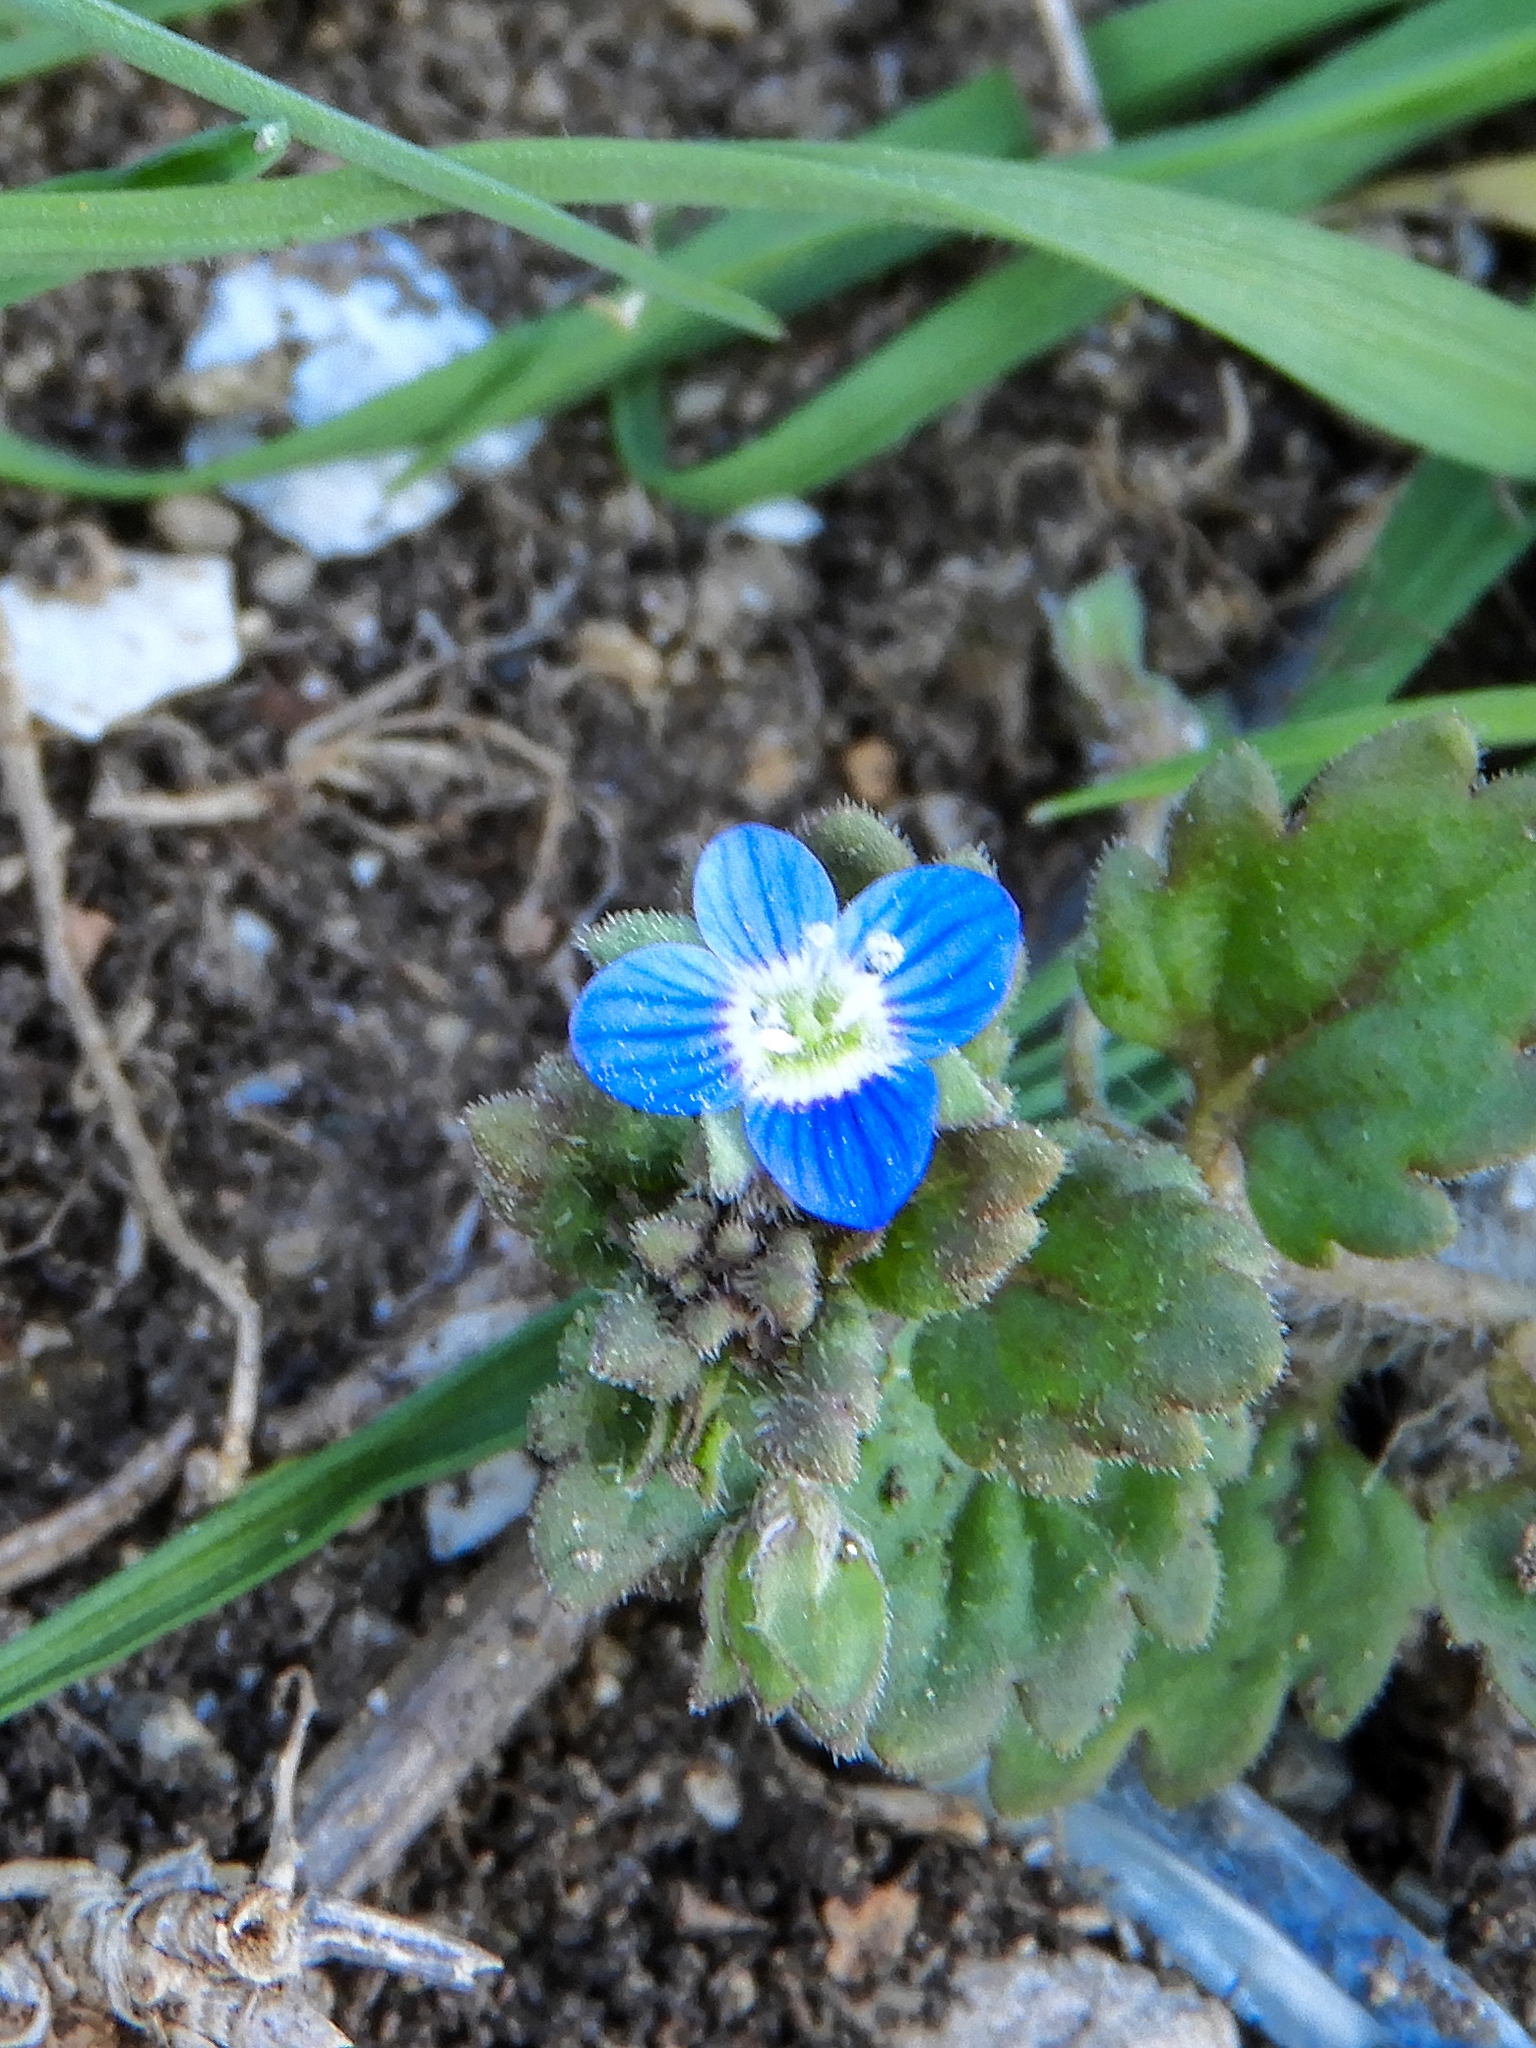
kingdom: Plantae
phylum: Tracheophyta
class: Magnoliopsida
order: Lamiales
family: Plantaginaceae
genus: Veronica
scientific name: Veronica polita
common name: Grey field-speedwell
